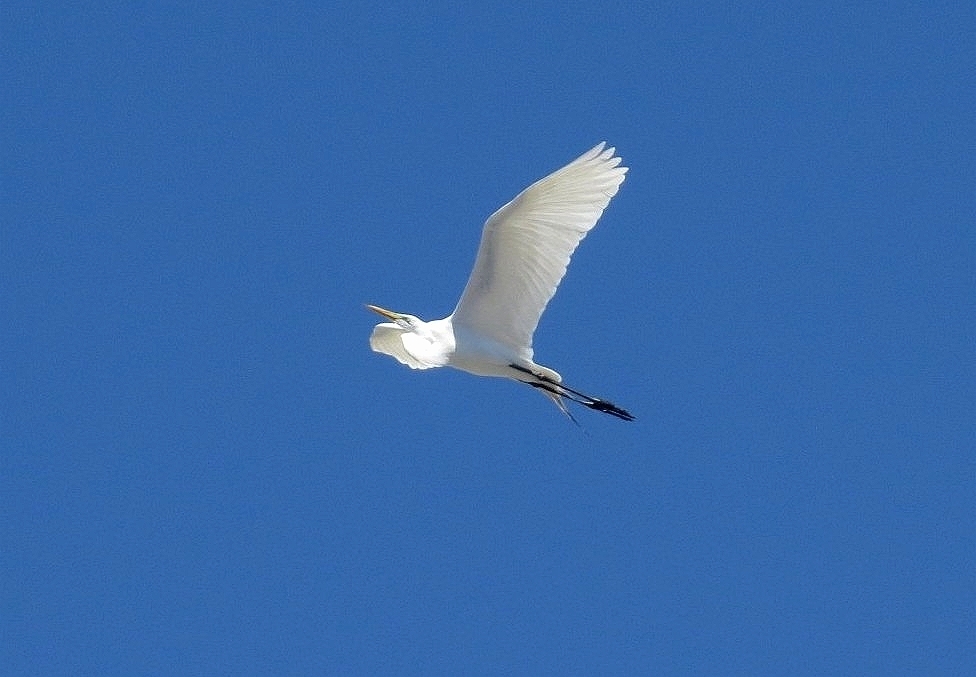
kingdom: Animalia
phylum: Chordata
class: Aves
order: Pelecaniformes
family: Ardeidae
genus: Ardea
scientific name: Ardea alba
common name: Great egret
